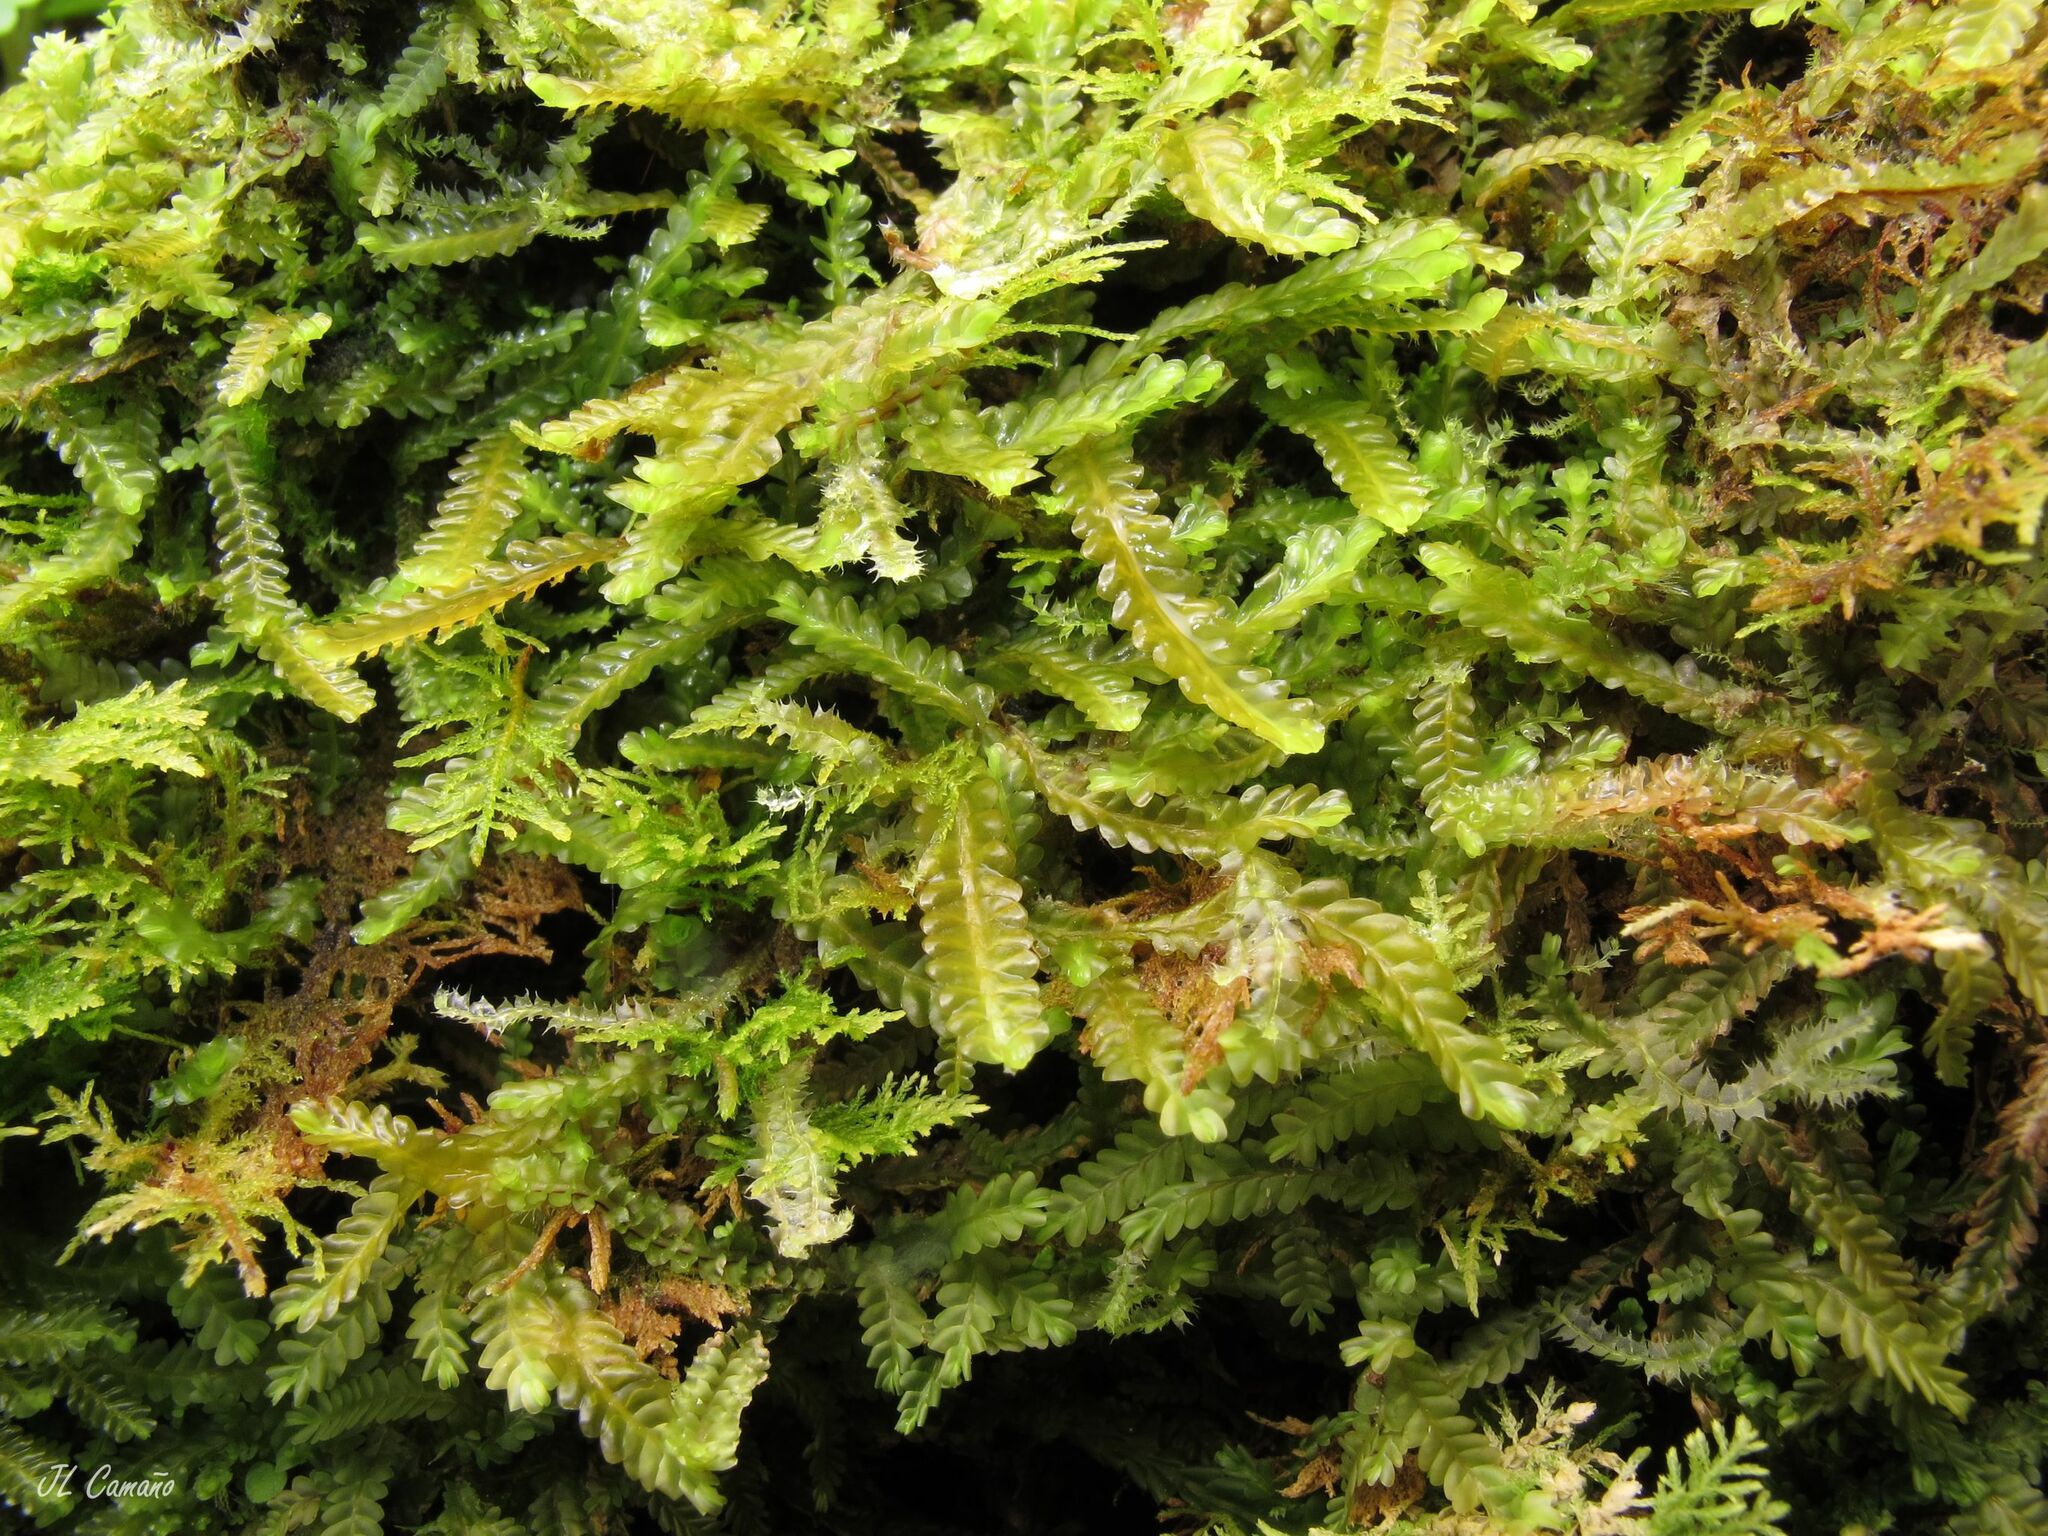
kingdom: Plantae
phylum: Marchantiophyta
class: Jungermanniopsida
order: Jungermanniales
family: Saccogynaceae
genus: Saccogyna
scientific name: Saccogyna viticulosa
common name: Straggling pouchwort
